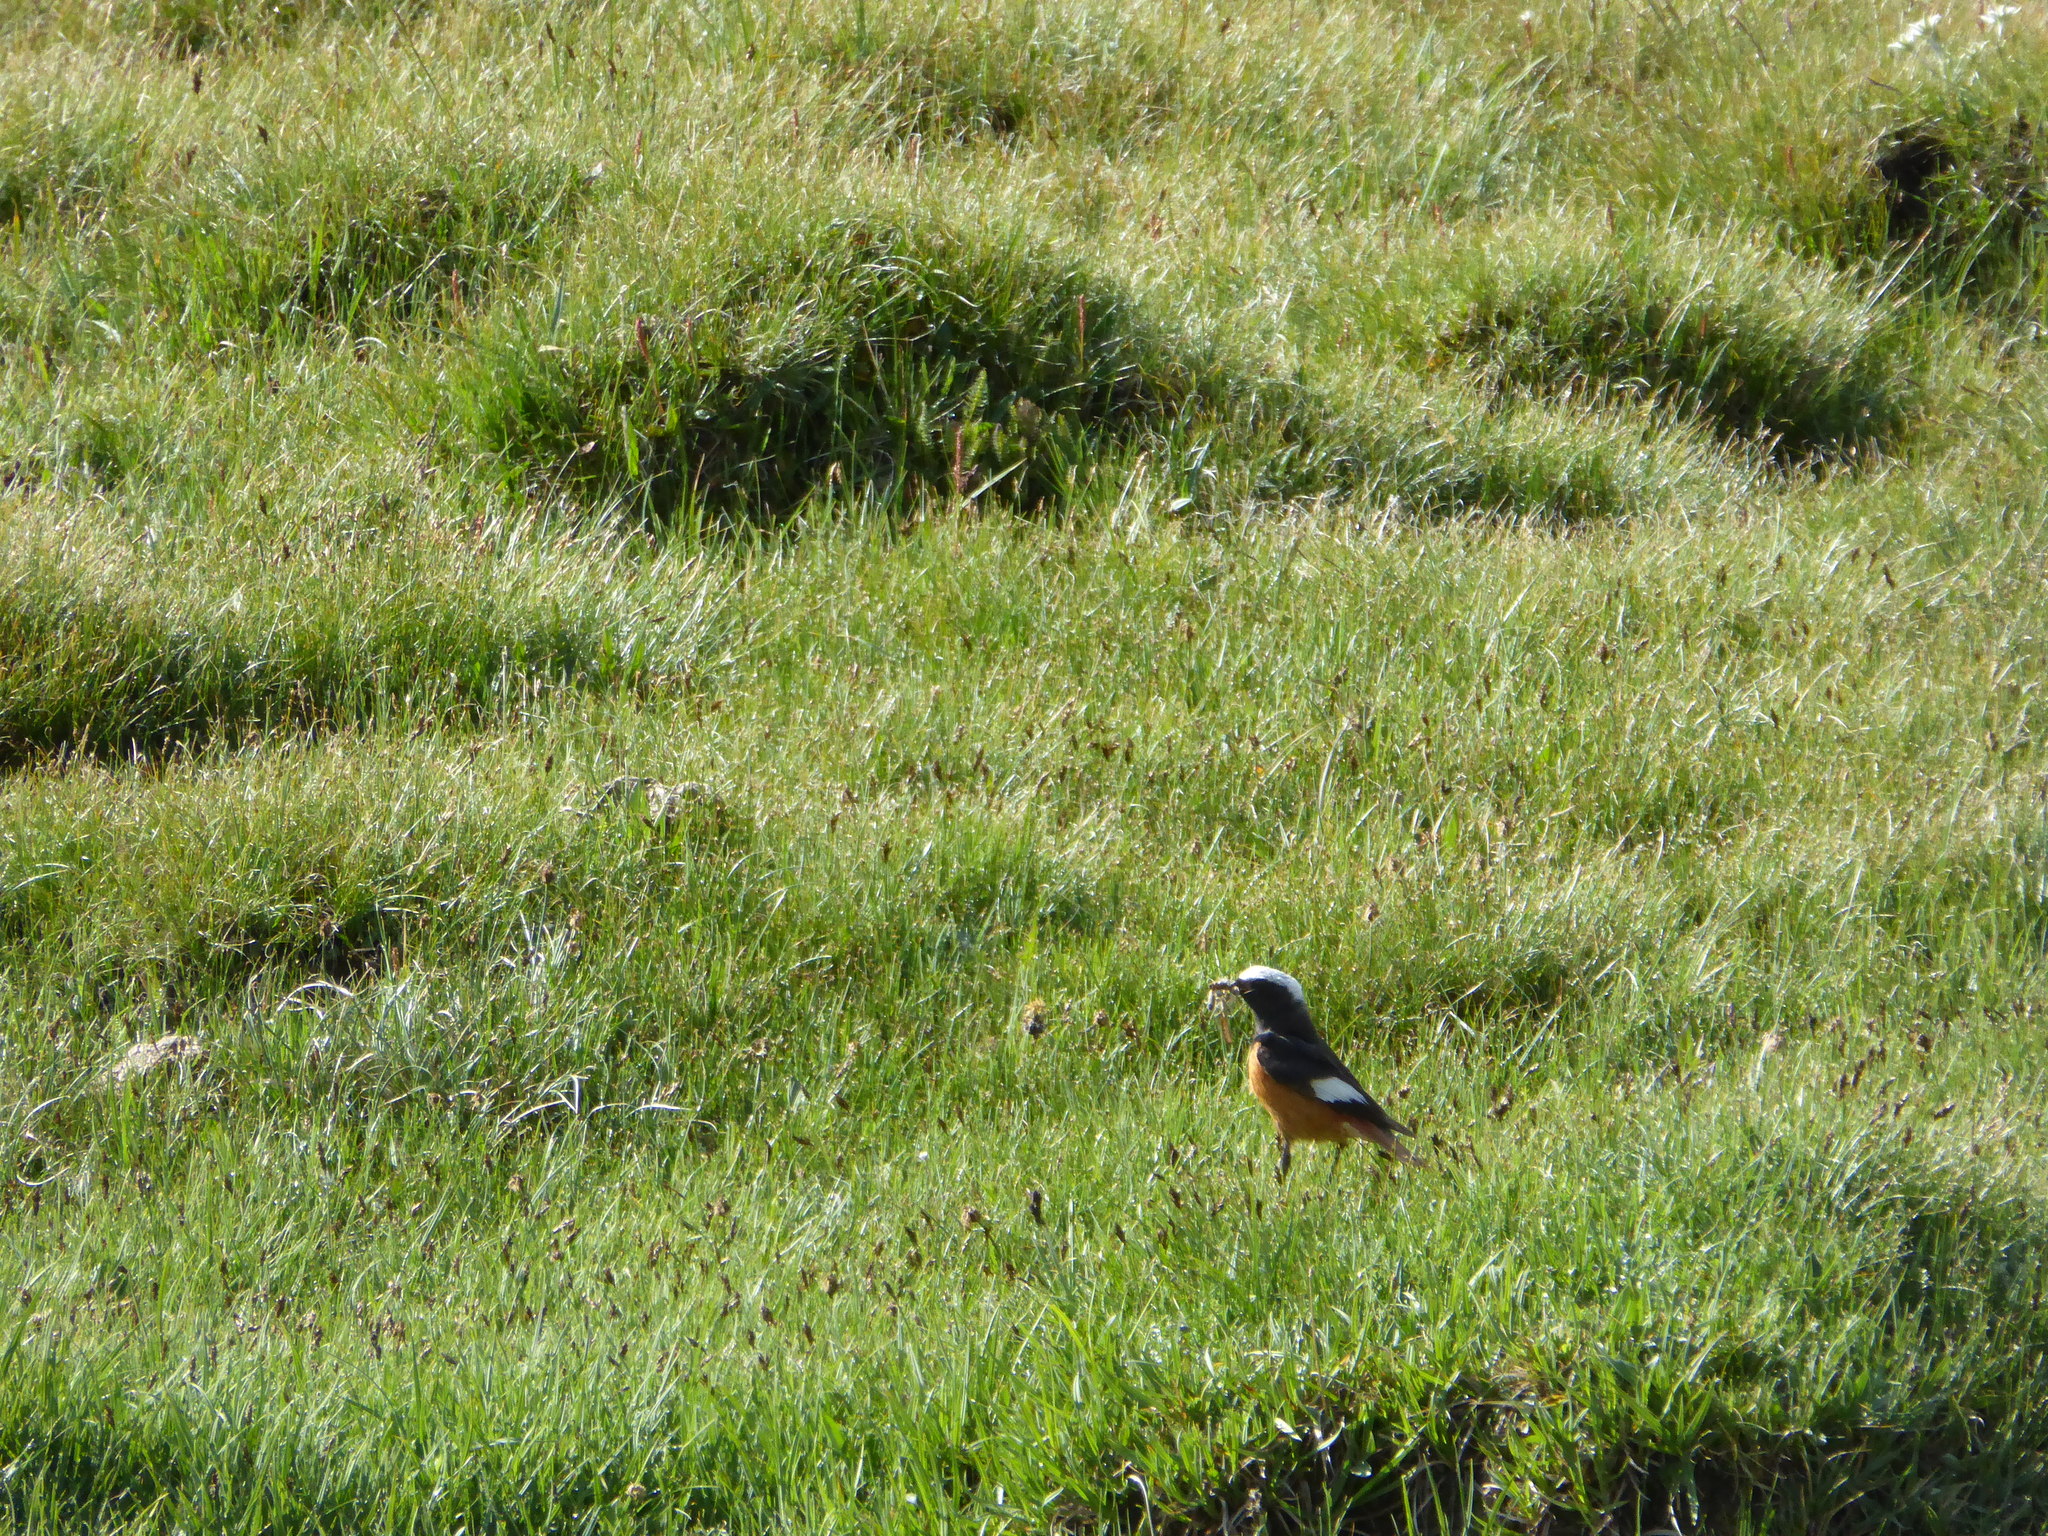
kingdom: Animalia
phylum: Chordata
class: Aves
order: Passeriformes
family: Muscicapidae
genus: Phoenicurus
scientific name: Phoenicurus erythrogastrus
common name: Güldenstädt's redstart
